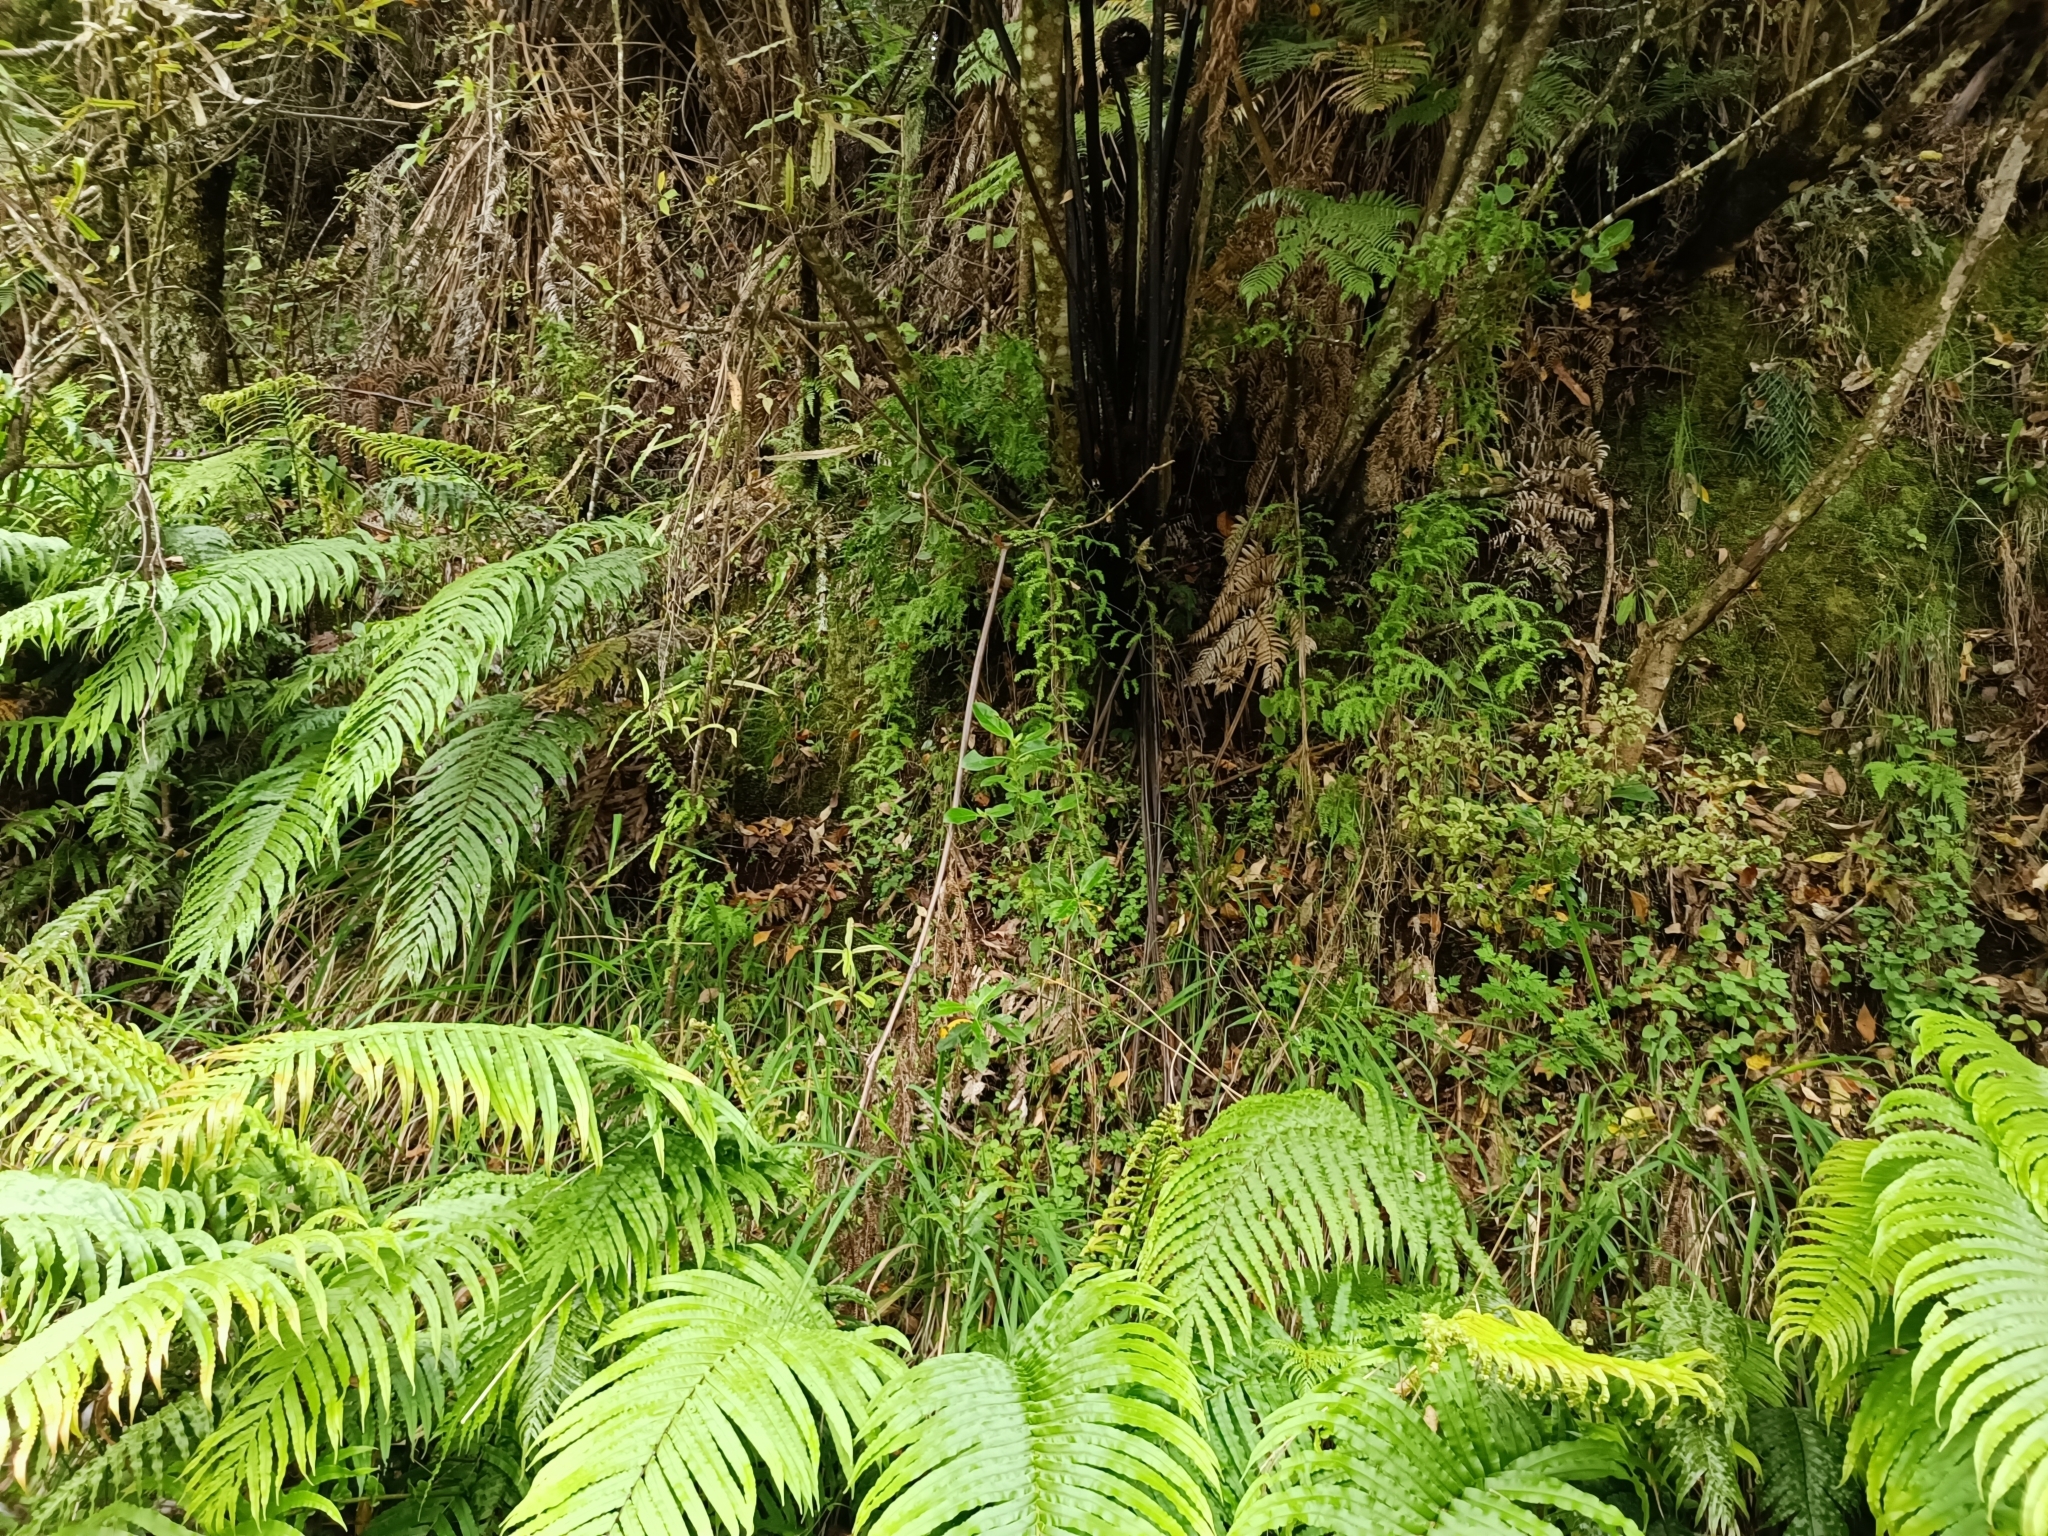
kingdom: Plantae
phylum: Tracheophyta
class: Liliopsida
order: Asparagales
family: Asparagaceae
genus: Asparagus
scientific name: Asparagus scandens
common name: Asparagus-fern
